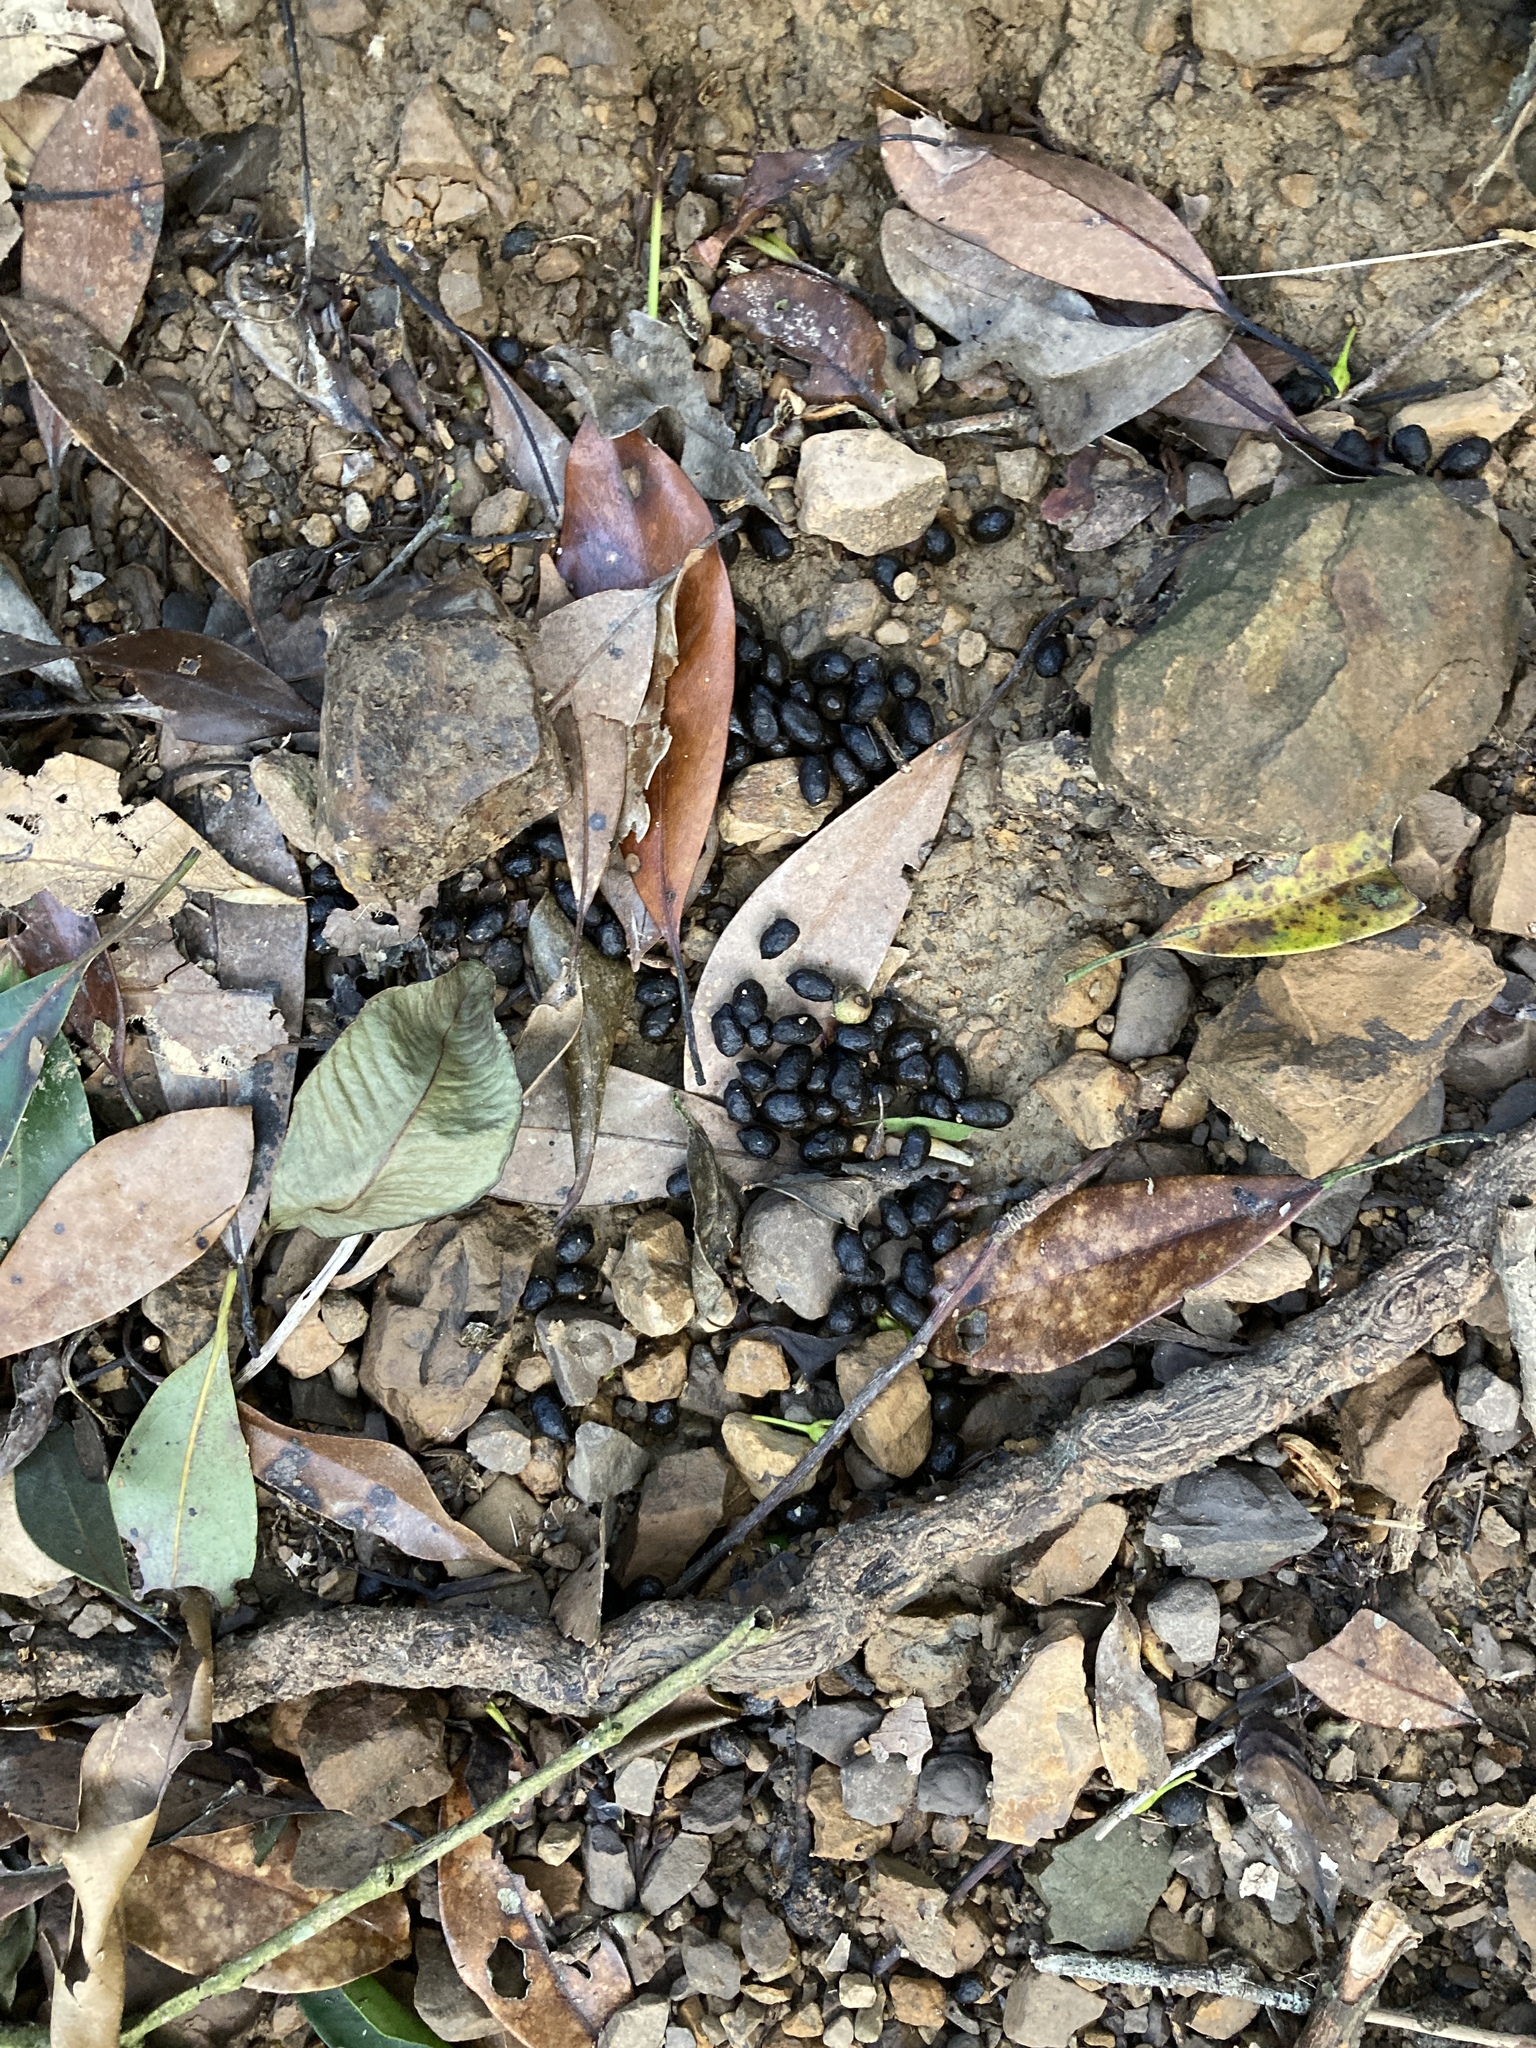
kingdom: Animalia
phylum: Chordata
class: Mammalia
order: Artiodactyla
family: Cervidae
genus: Muntiacus
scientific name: Muntiacus reevesi
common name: Reeves' muntjac
